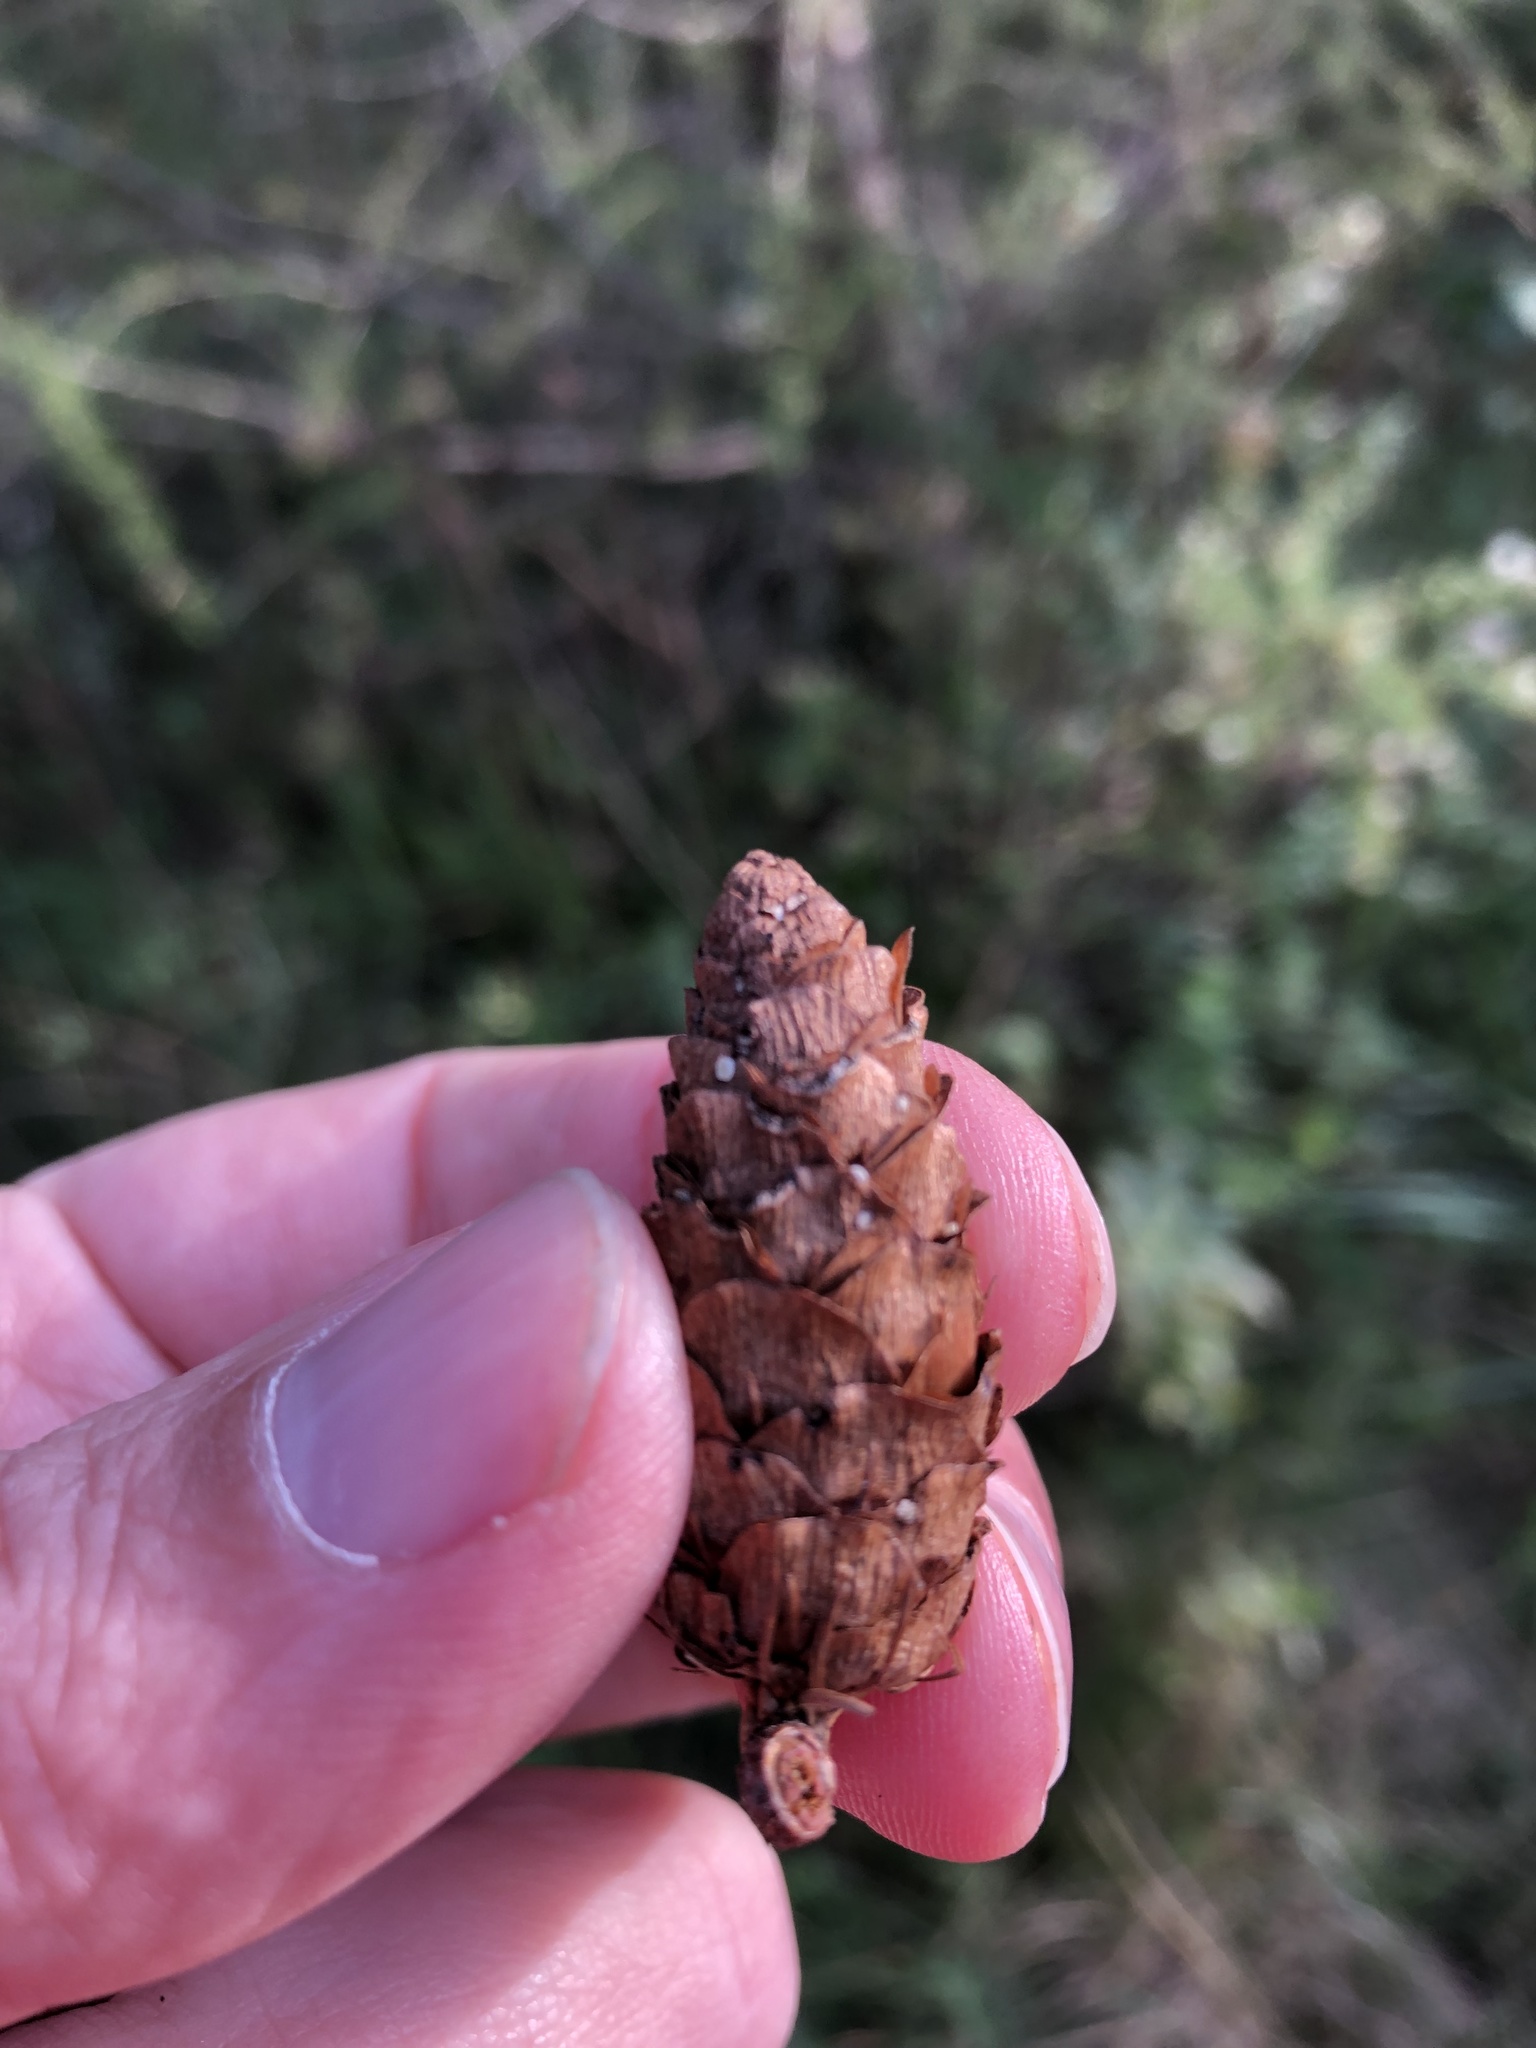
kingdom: Plantae
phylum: Tracheophyta
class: Pinopsida
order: Pinales
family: Pinaceae
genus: Picea
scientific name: Picea glauca
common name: White spruce
